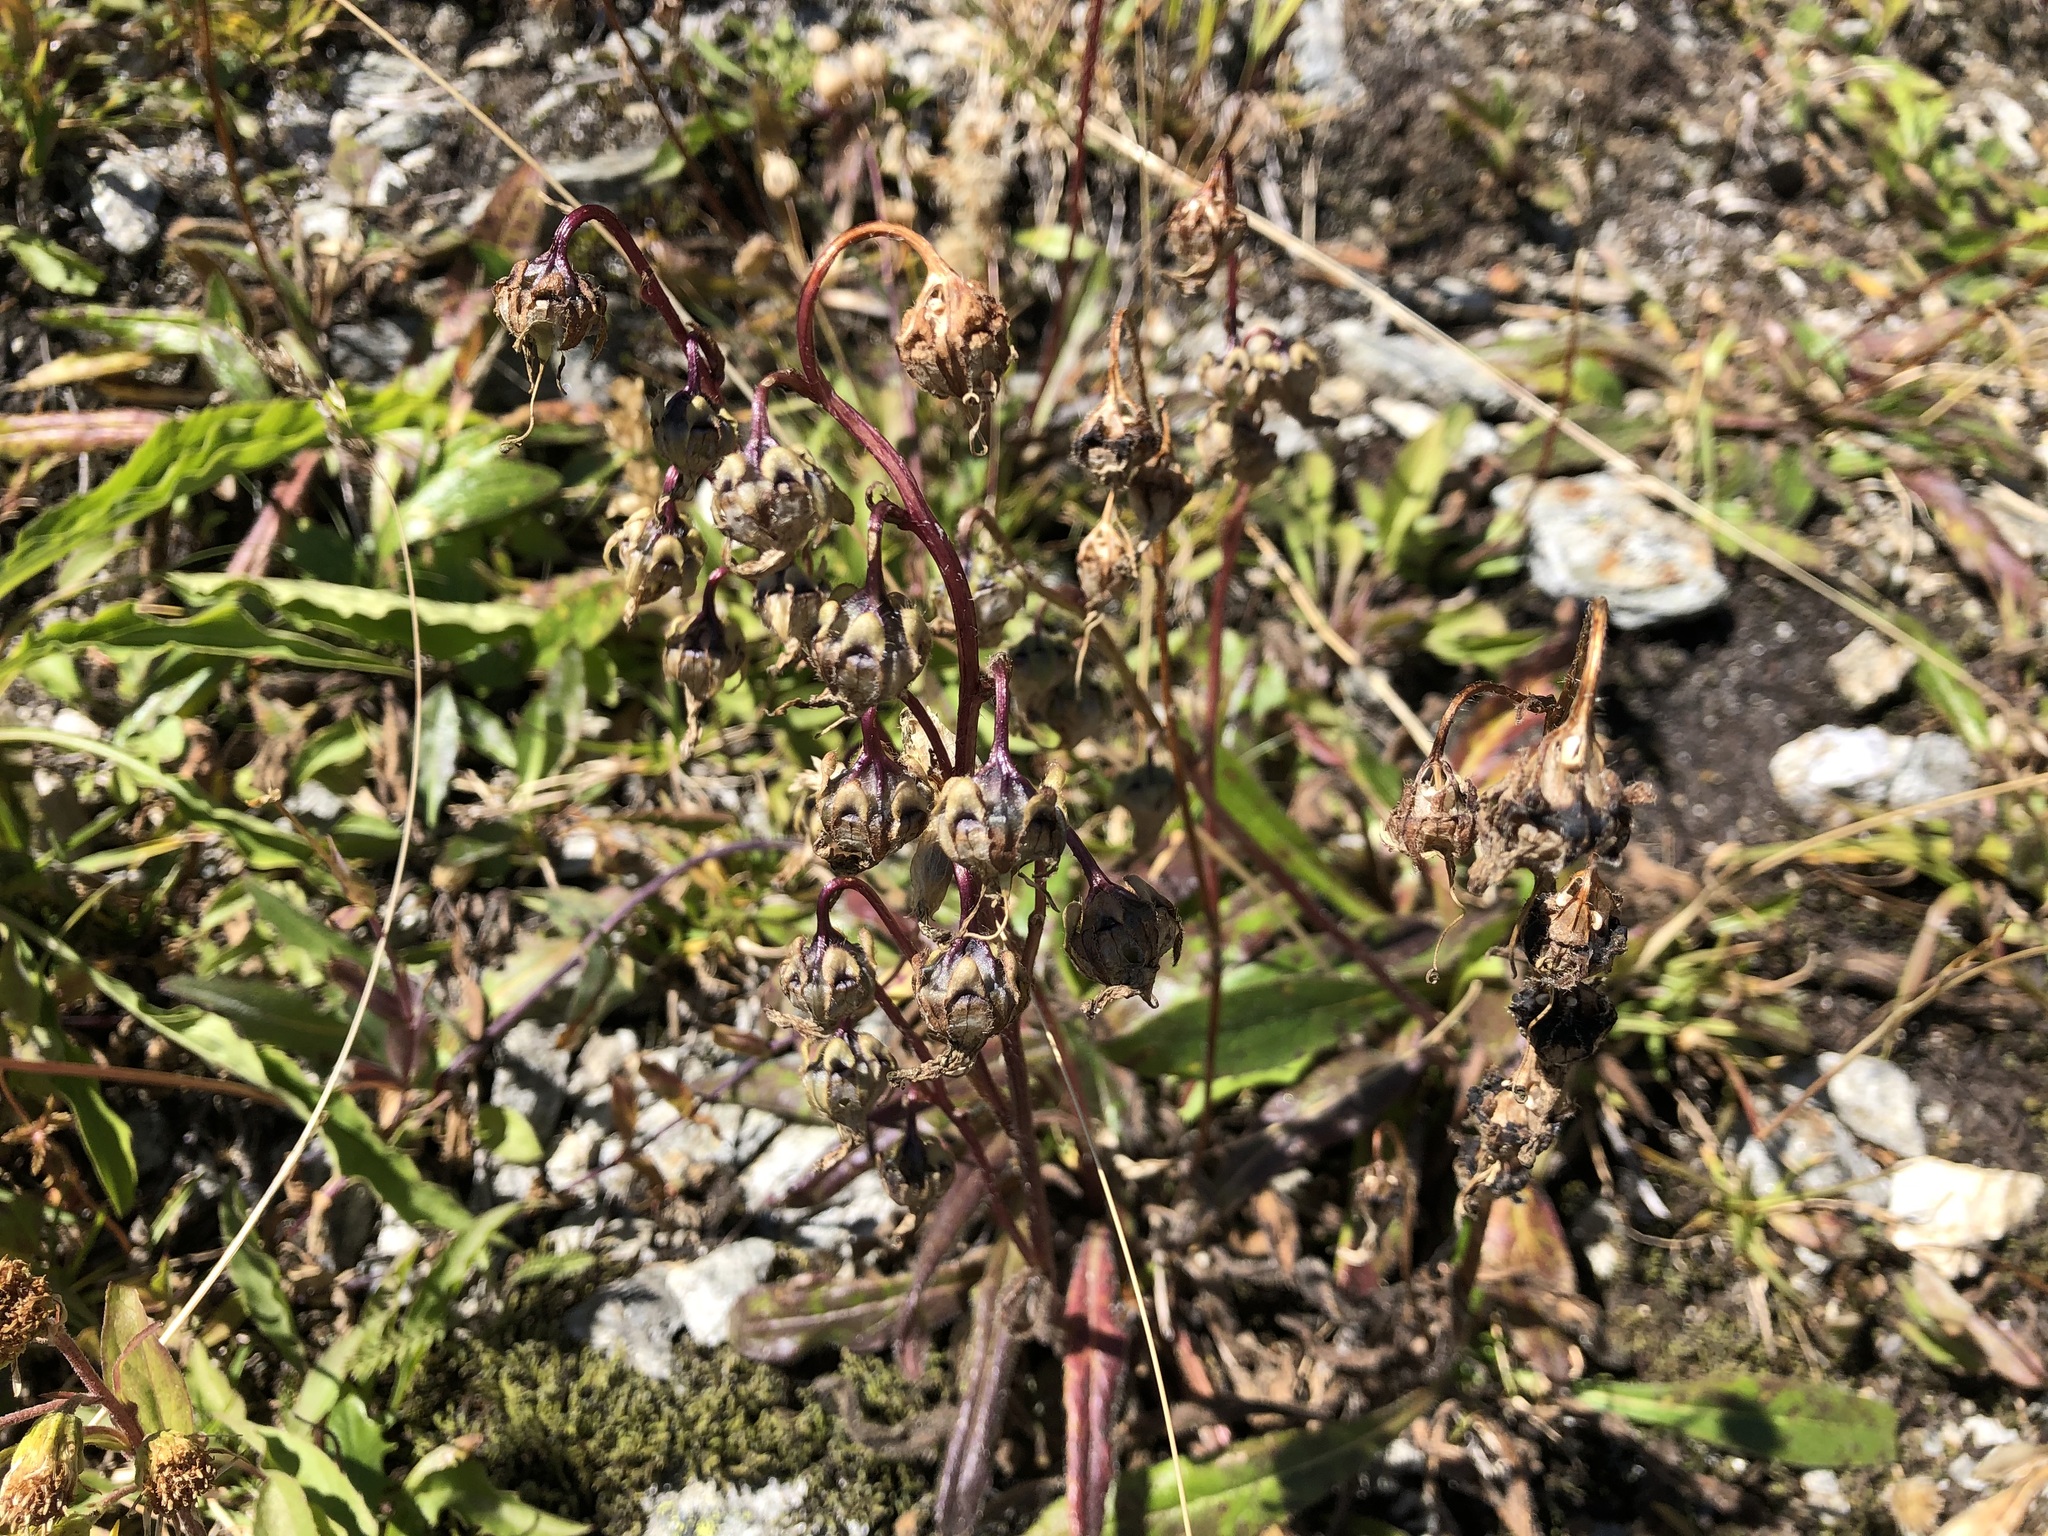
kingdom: Plantae
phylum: Tracheophyta
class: Magnoliopsida
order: Asterales
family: Campanulaceae
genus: Campanula
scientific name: Campanula barbata
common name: Bearded bellflower
